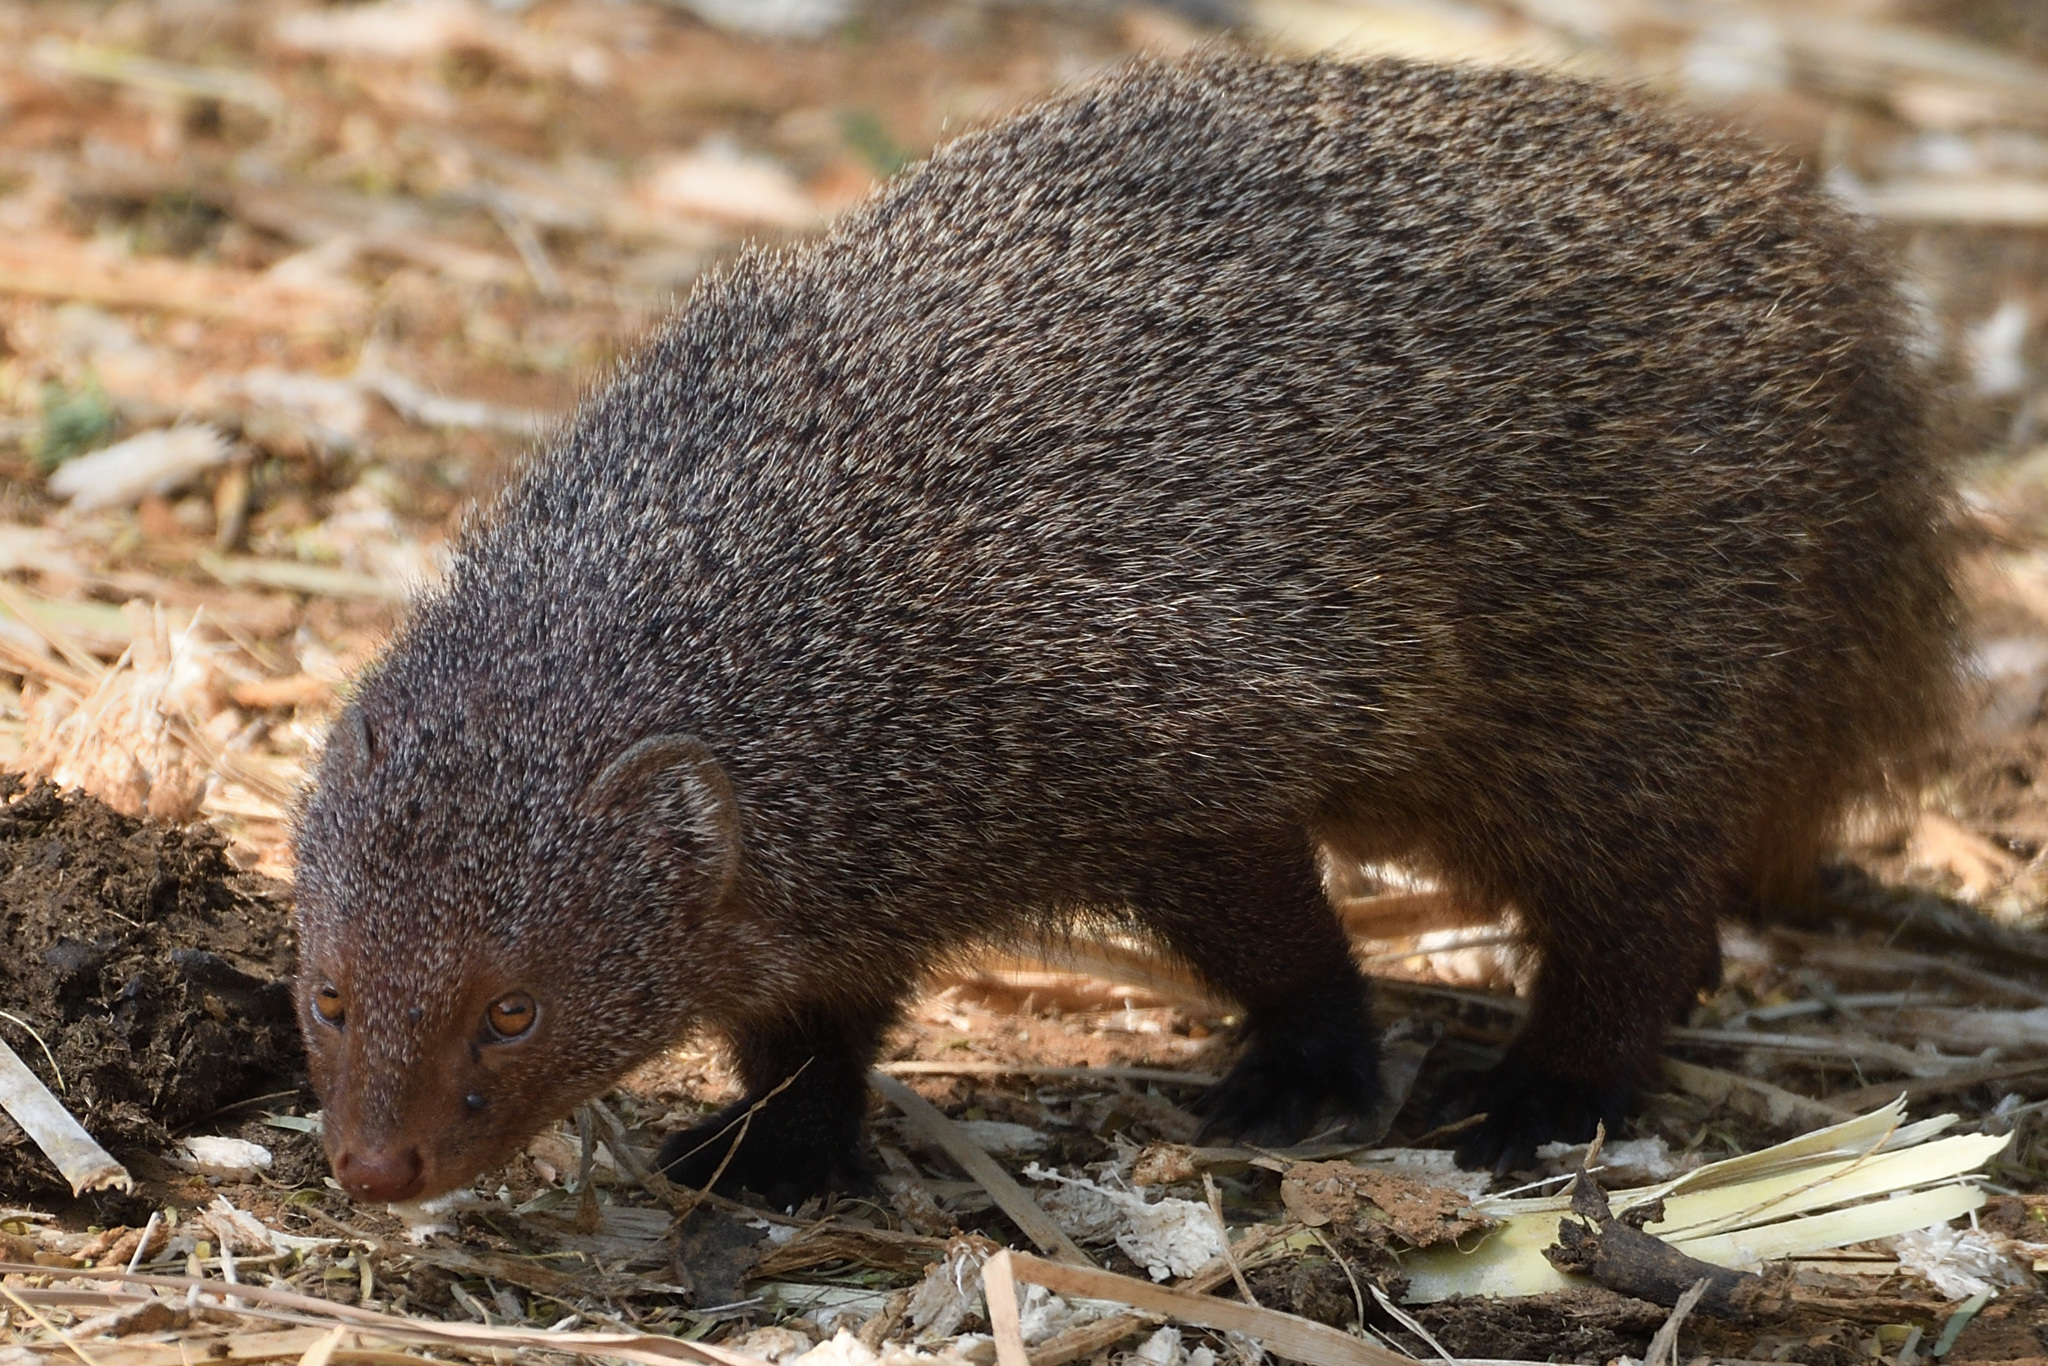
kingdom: Animalia
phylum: Chordata
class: Mammalia
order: Carnivora
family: Herpestidae
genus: Herpestes
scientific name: Herpestes smithii
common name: Ruddy mongoose
